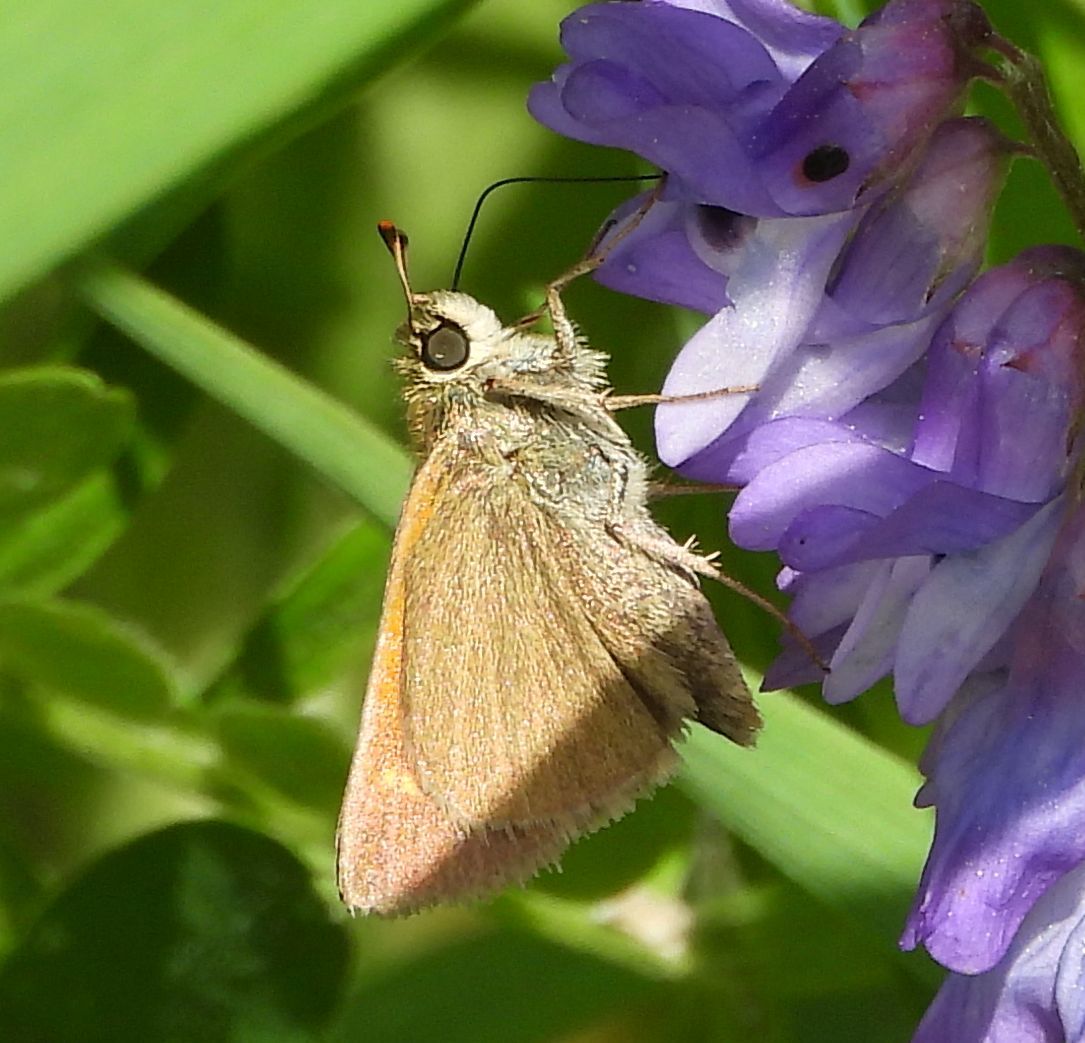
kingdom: Animalia
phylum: Arthropoda
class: Insecta
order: Lepidoptera
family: Hesperiidae
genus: Polites
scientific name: Polites themistocles
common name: Tawny-edged skipper
